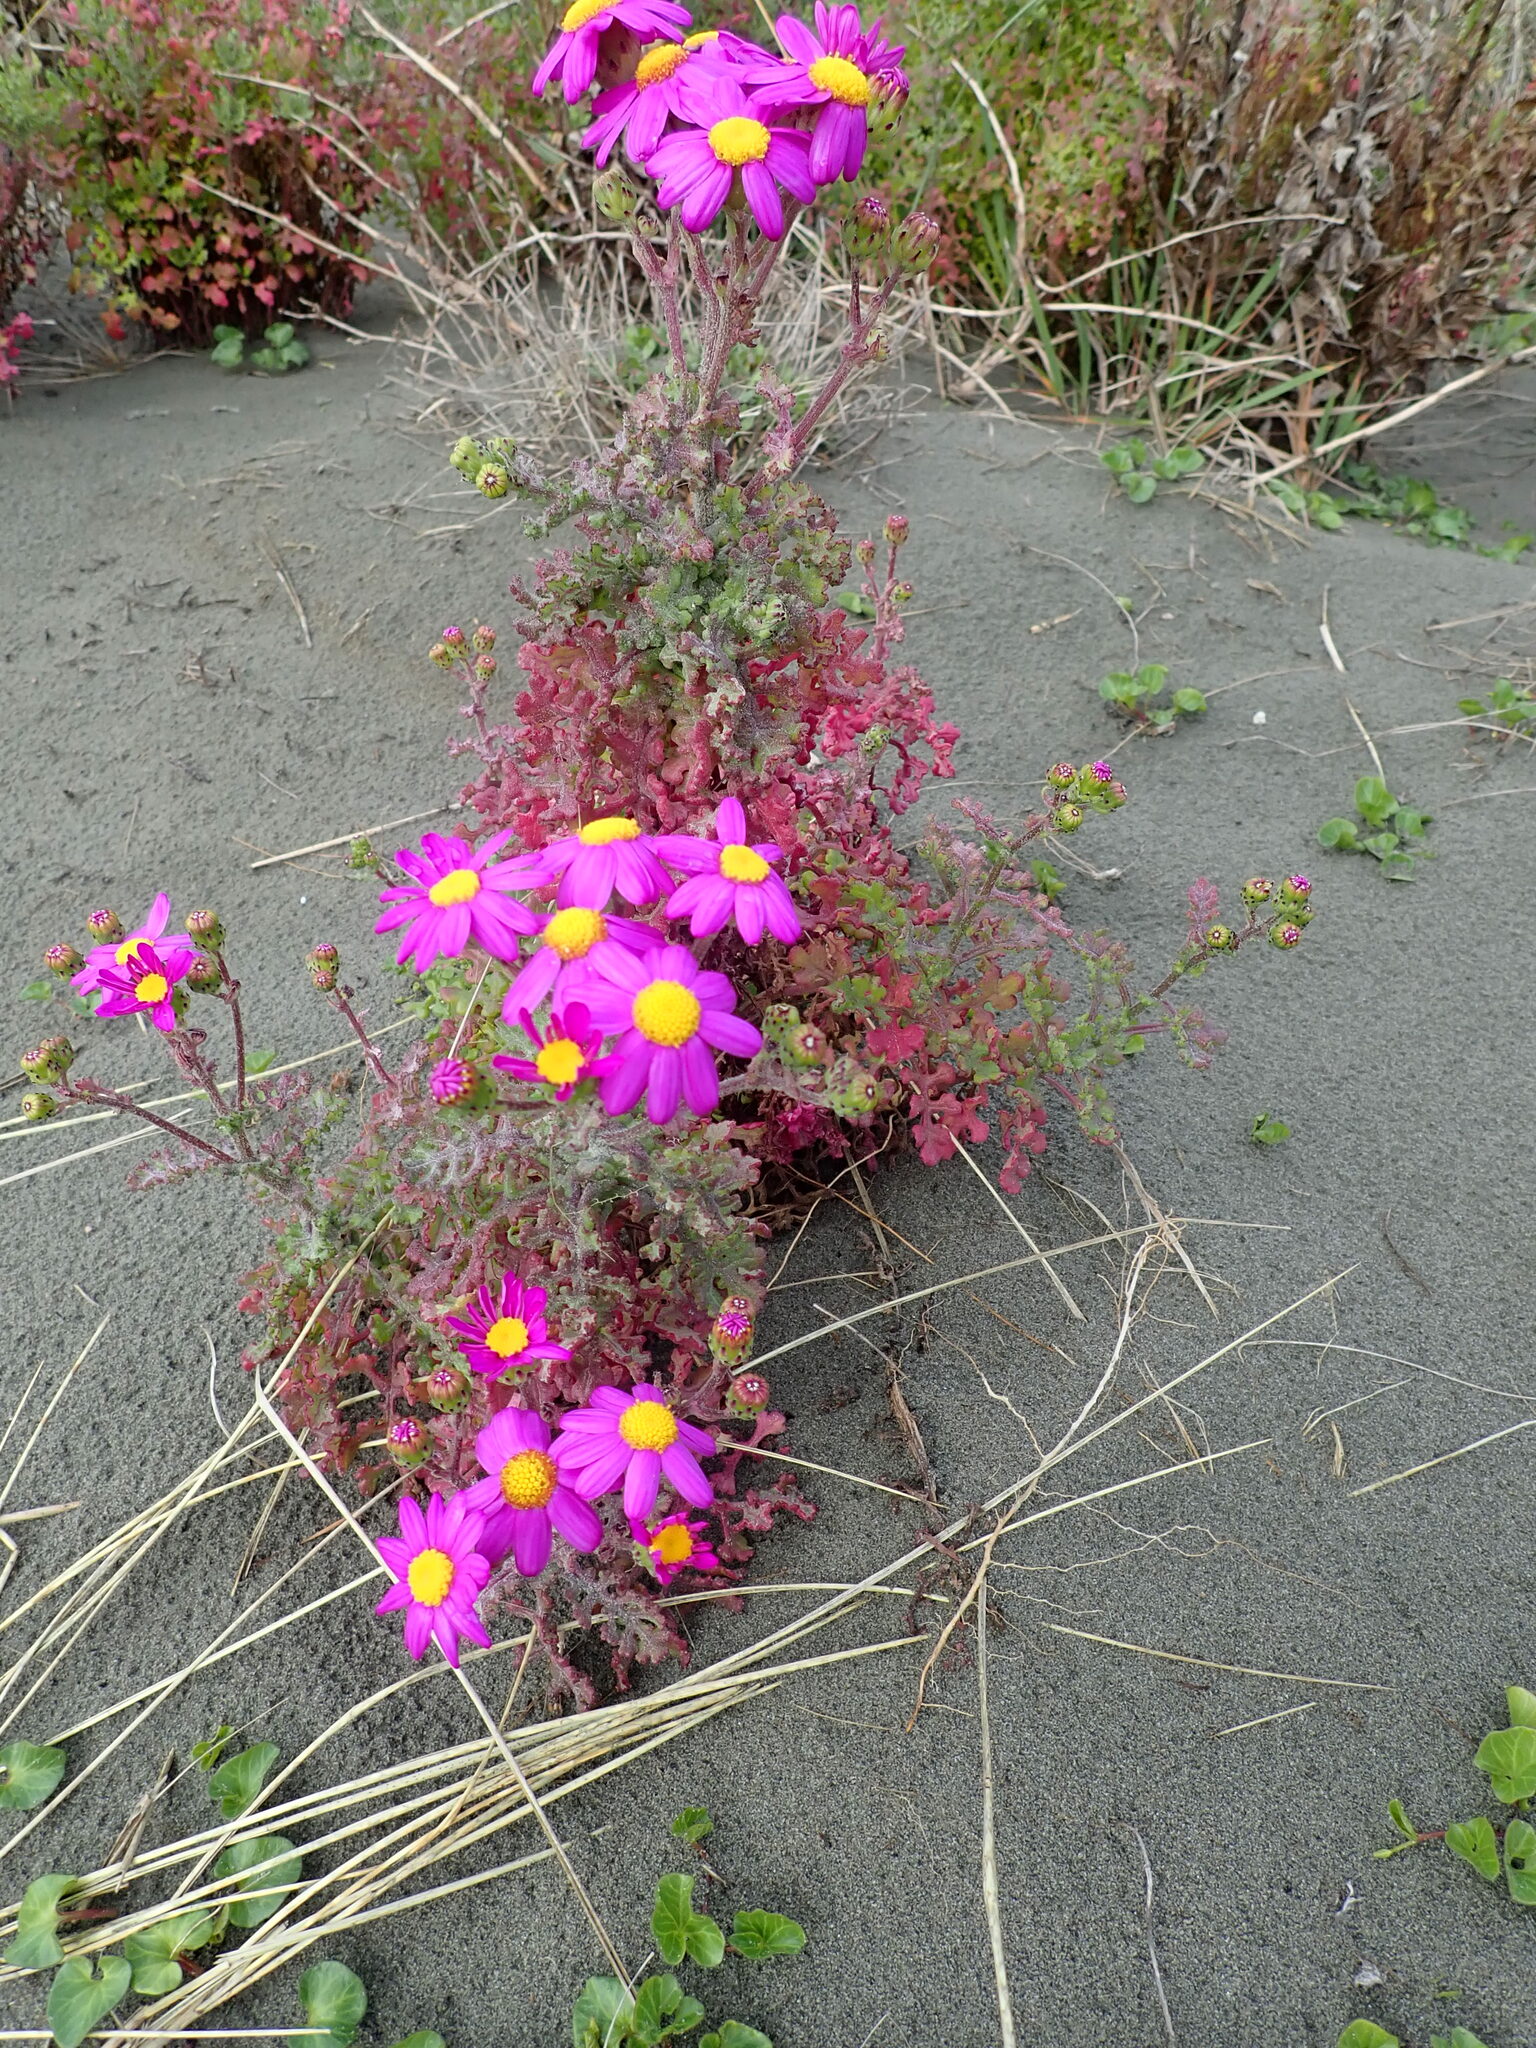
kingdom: Plantae
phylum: Tracheophyta
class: Magnoliopsida
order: Asterales
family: Asteraceae
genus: Senecio
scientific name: Senecio elegans
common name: Purple groundsel
